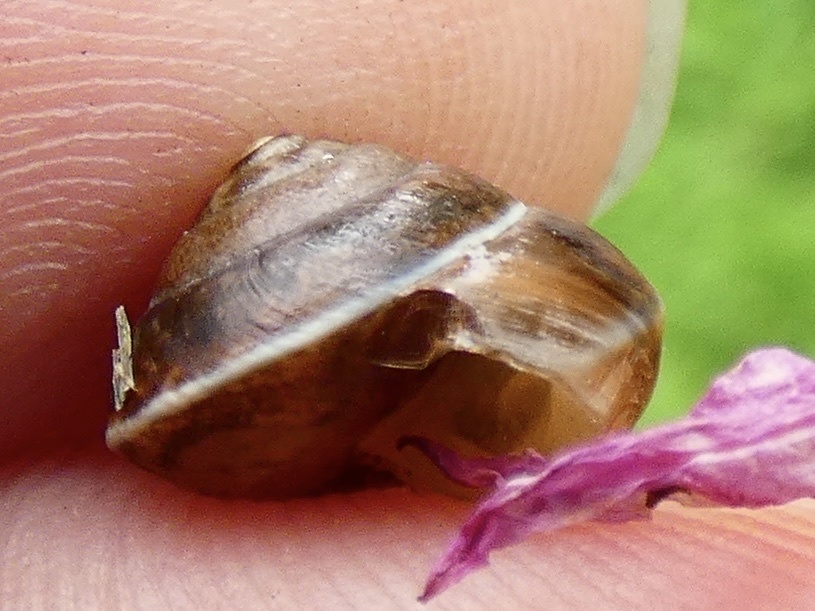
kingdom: Animalia
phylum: Mollusca
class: Gastropoda
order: Stylommatophora
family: Hygromiidae
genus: Hygromia
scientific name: Hygromia cinctella
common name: Girdled snail
